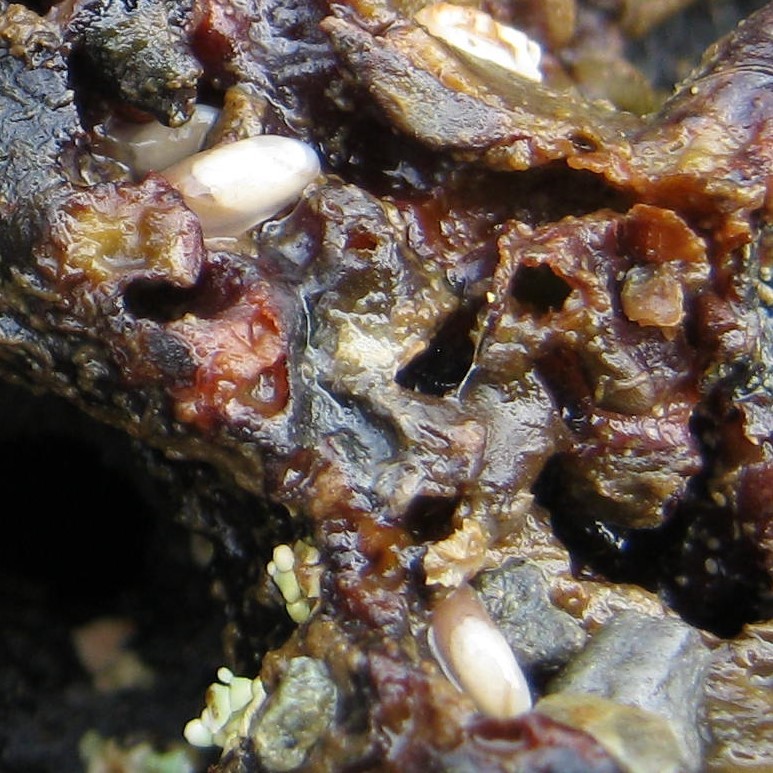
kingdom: Animalia
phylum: Mollusca
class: Gastropoda
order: Ellobiida
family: Otinidae
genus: Smeagol
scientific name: Smeagol climoi
